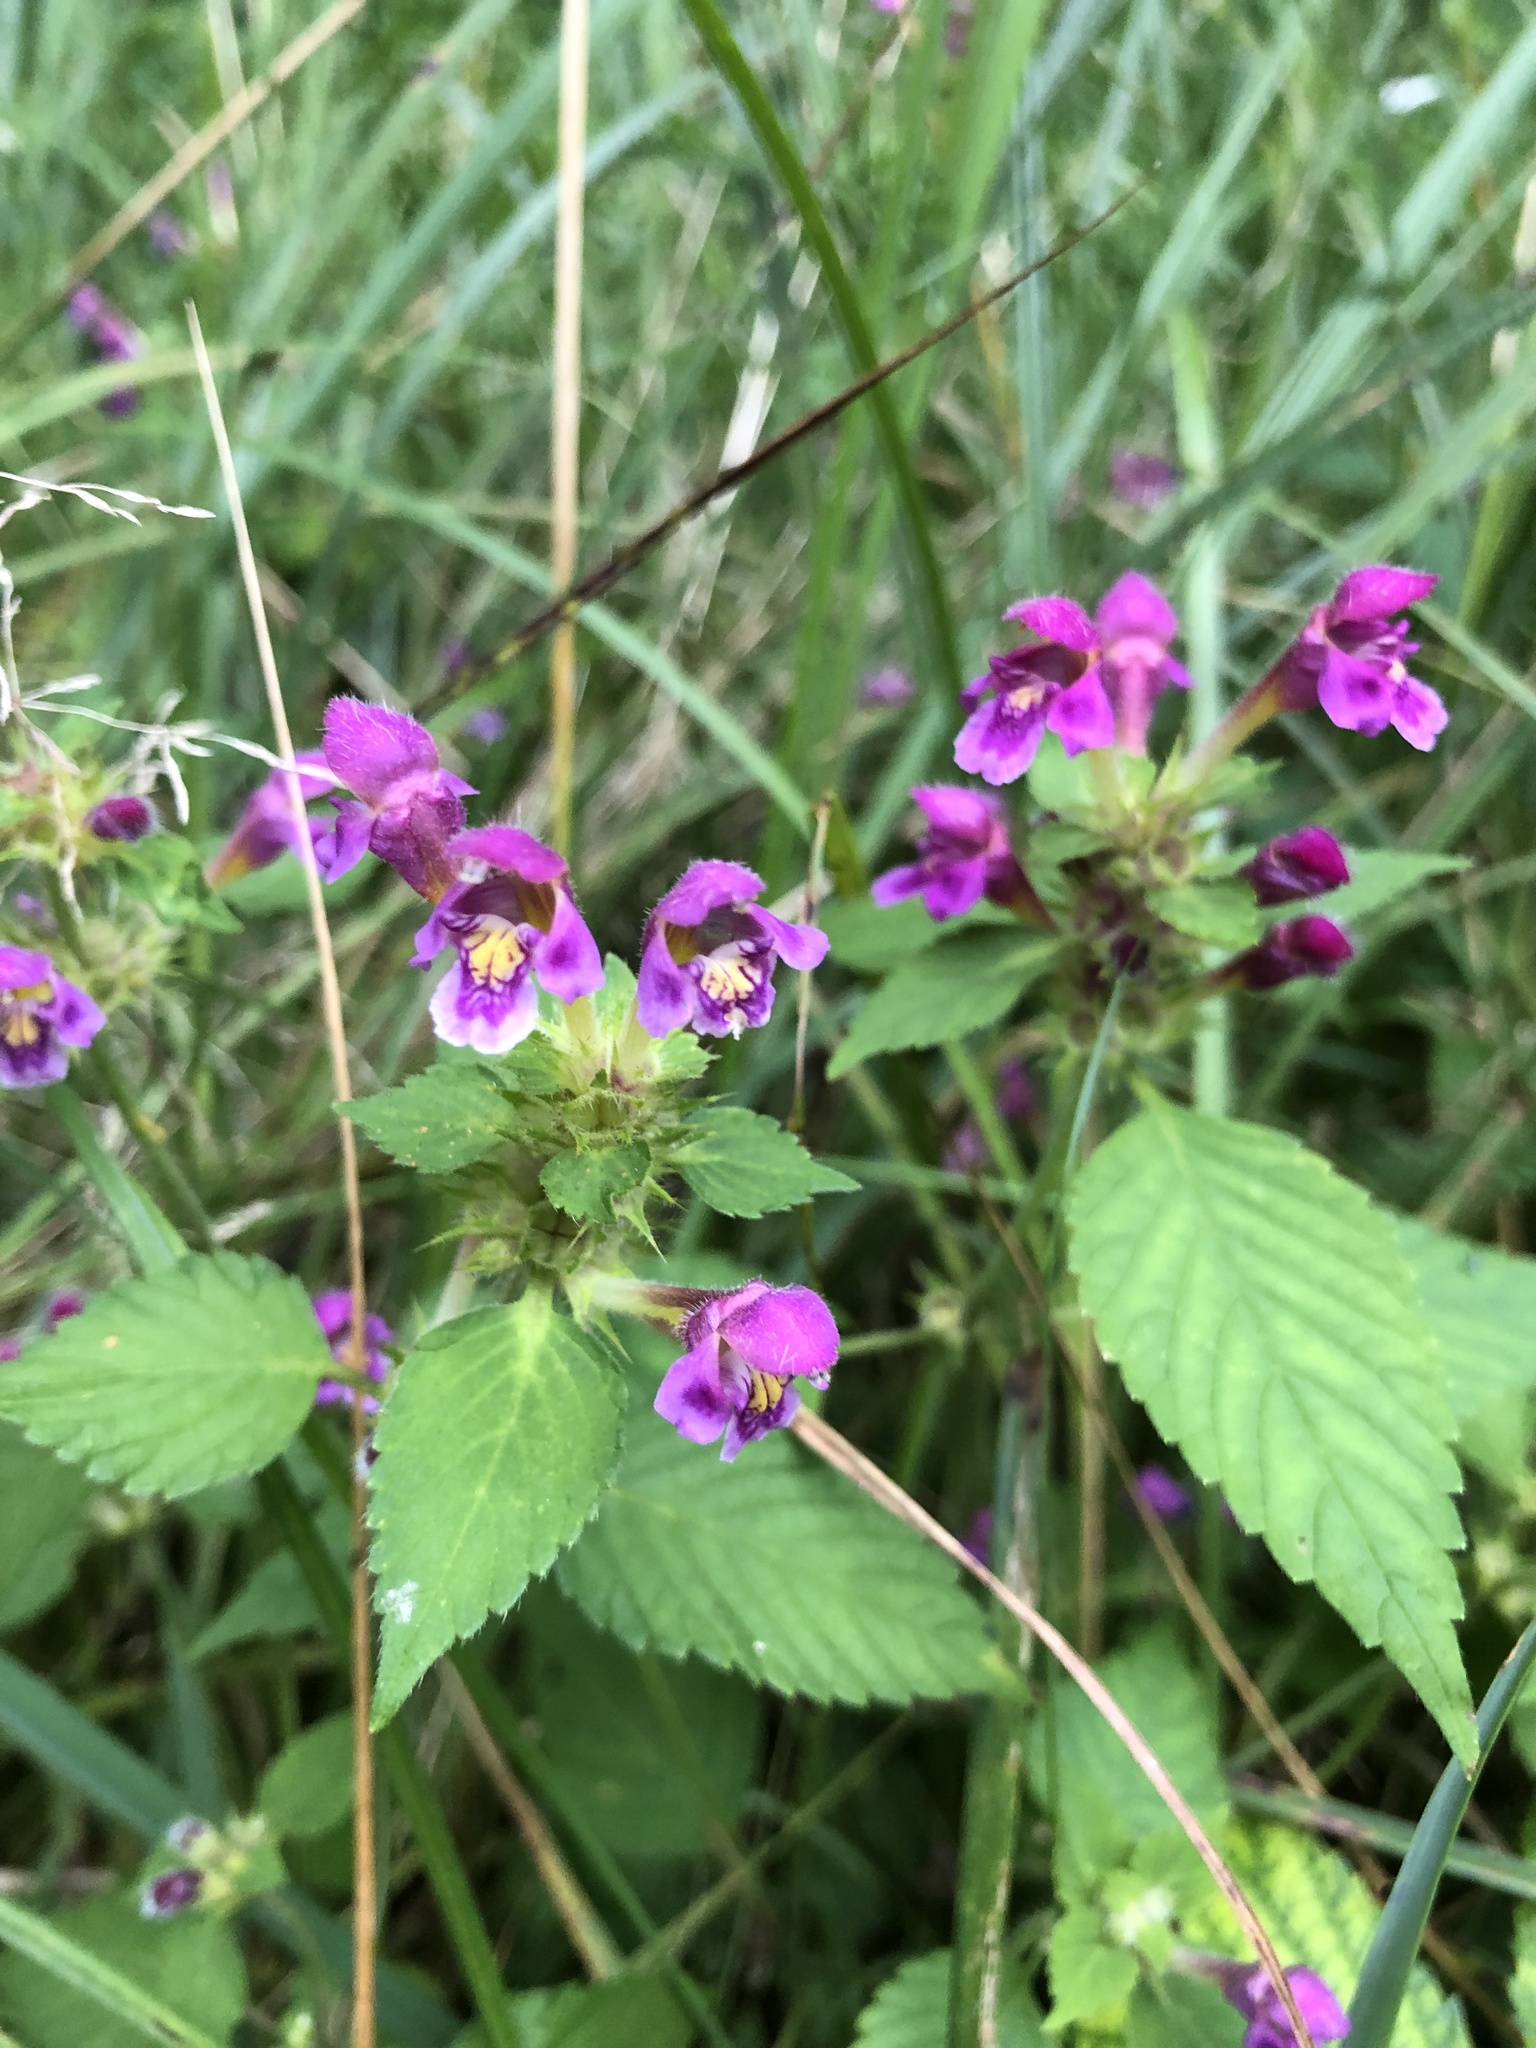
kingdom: Plantae
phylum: Tracheophyta
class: Magnoliopsida
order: Lamiales
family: Lamiaceae
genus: Galeopsis
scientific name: Galeopsis pubescens
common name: Downy hemp-nettle
